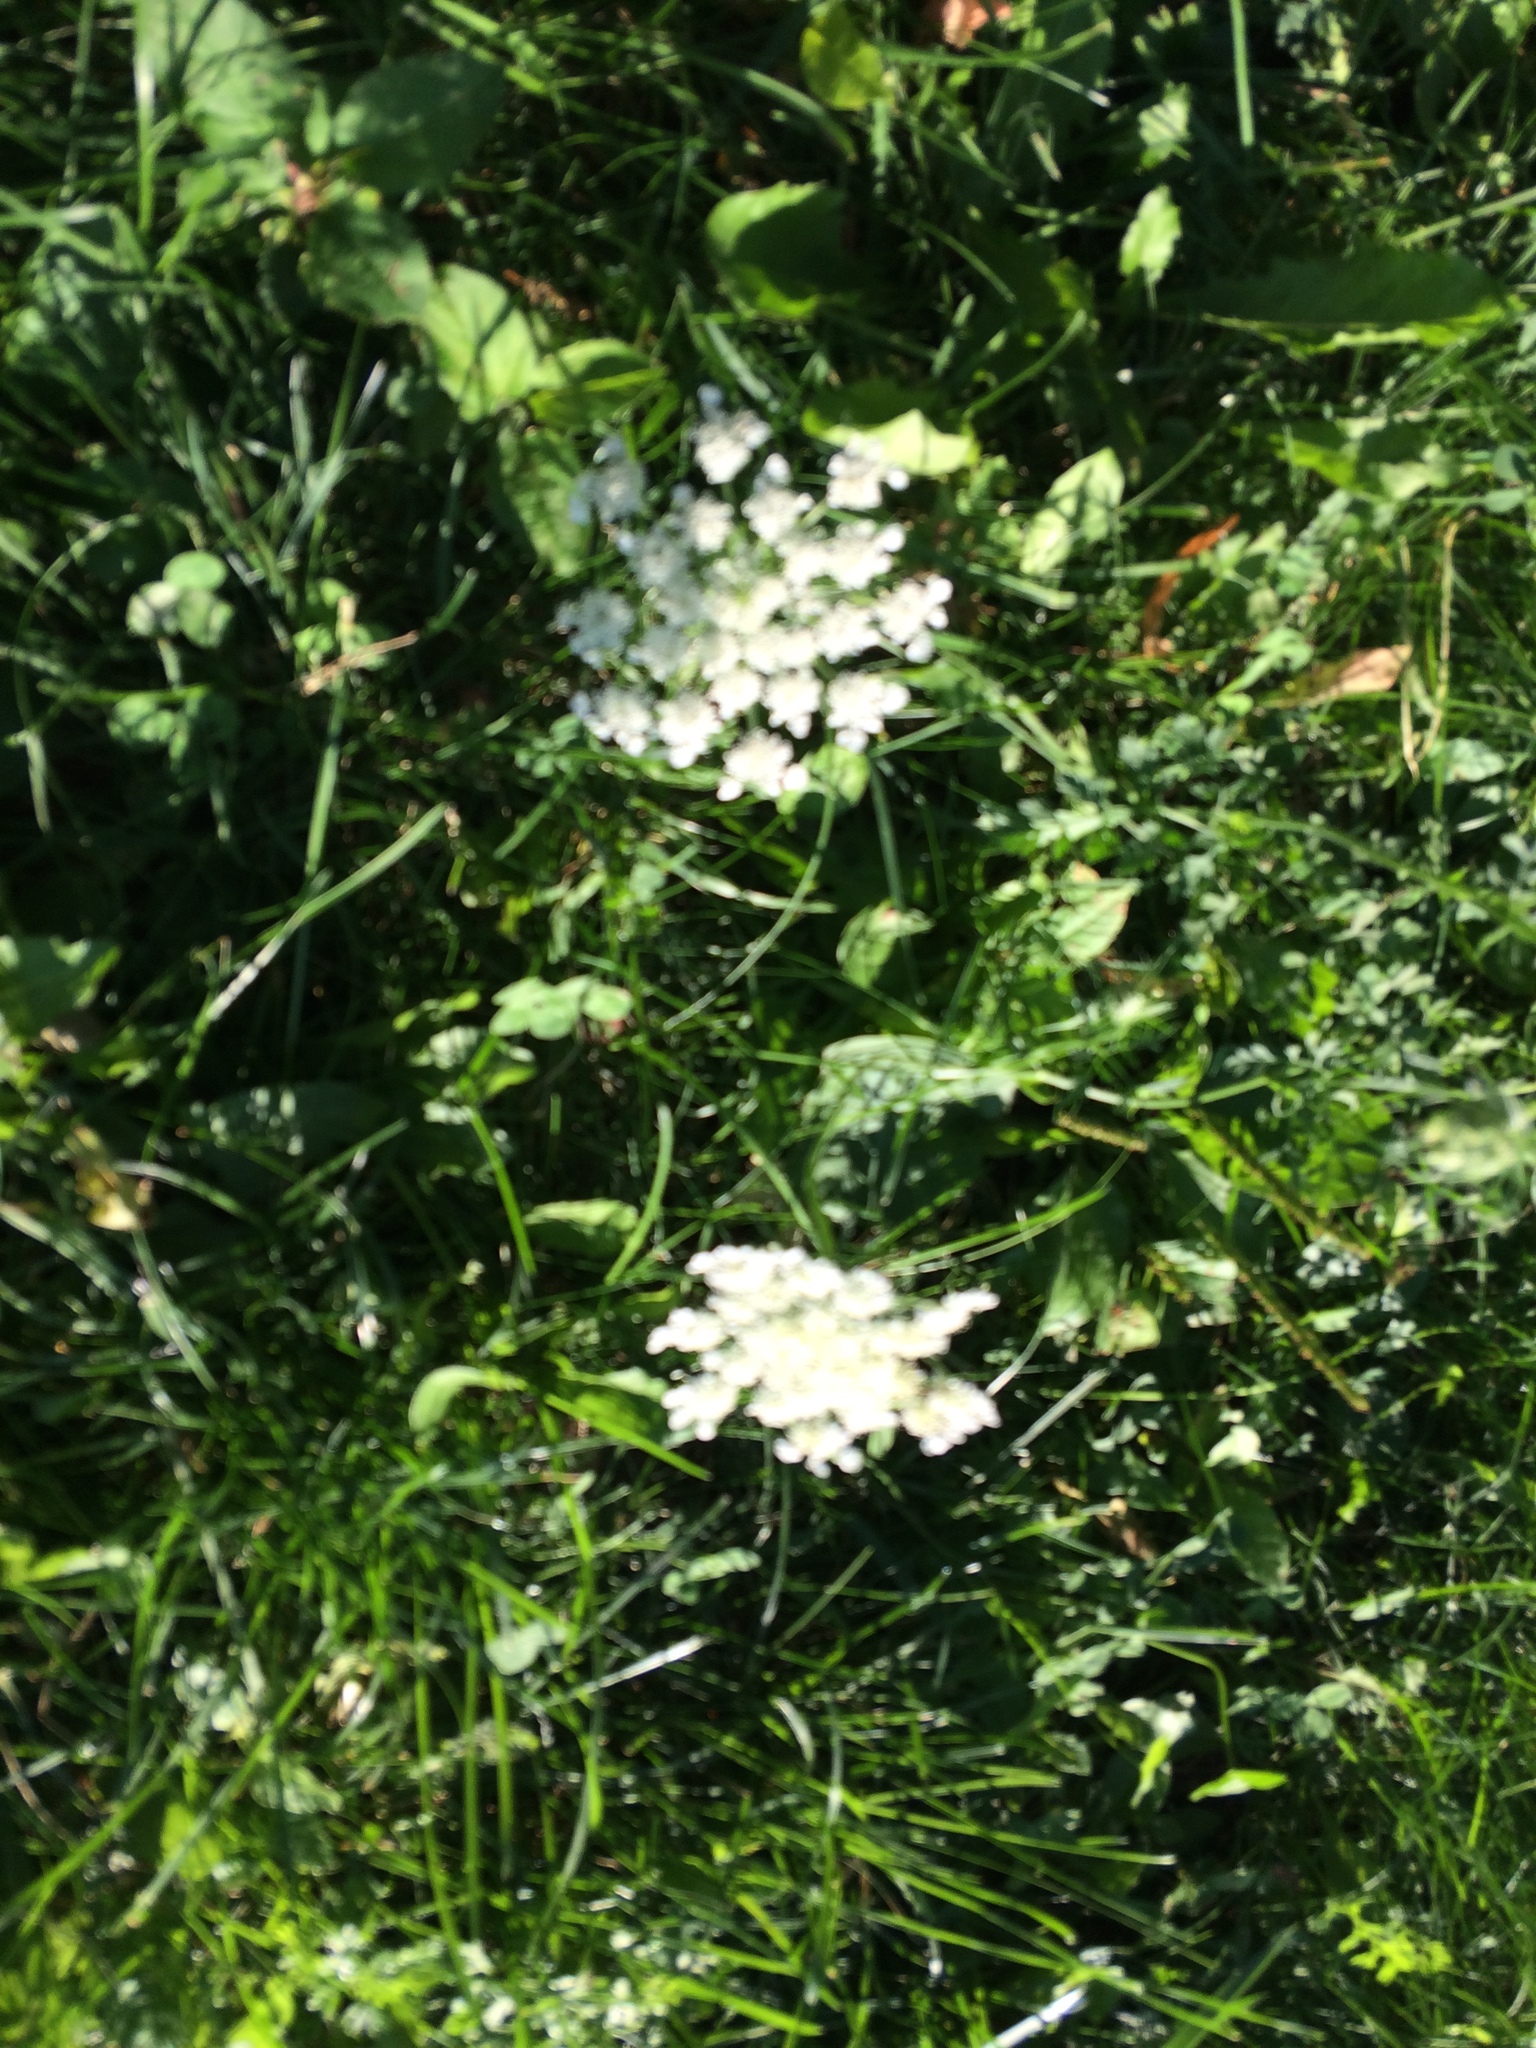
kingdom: Plantae
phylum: Tracheophyta
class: Magnoliopsida
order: Apiales
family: Apiaceae
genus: Daucus
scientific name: Daucus carota
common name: Wild carrot
